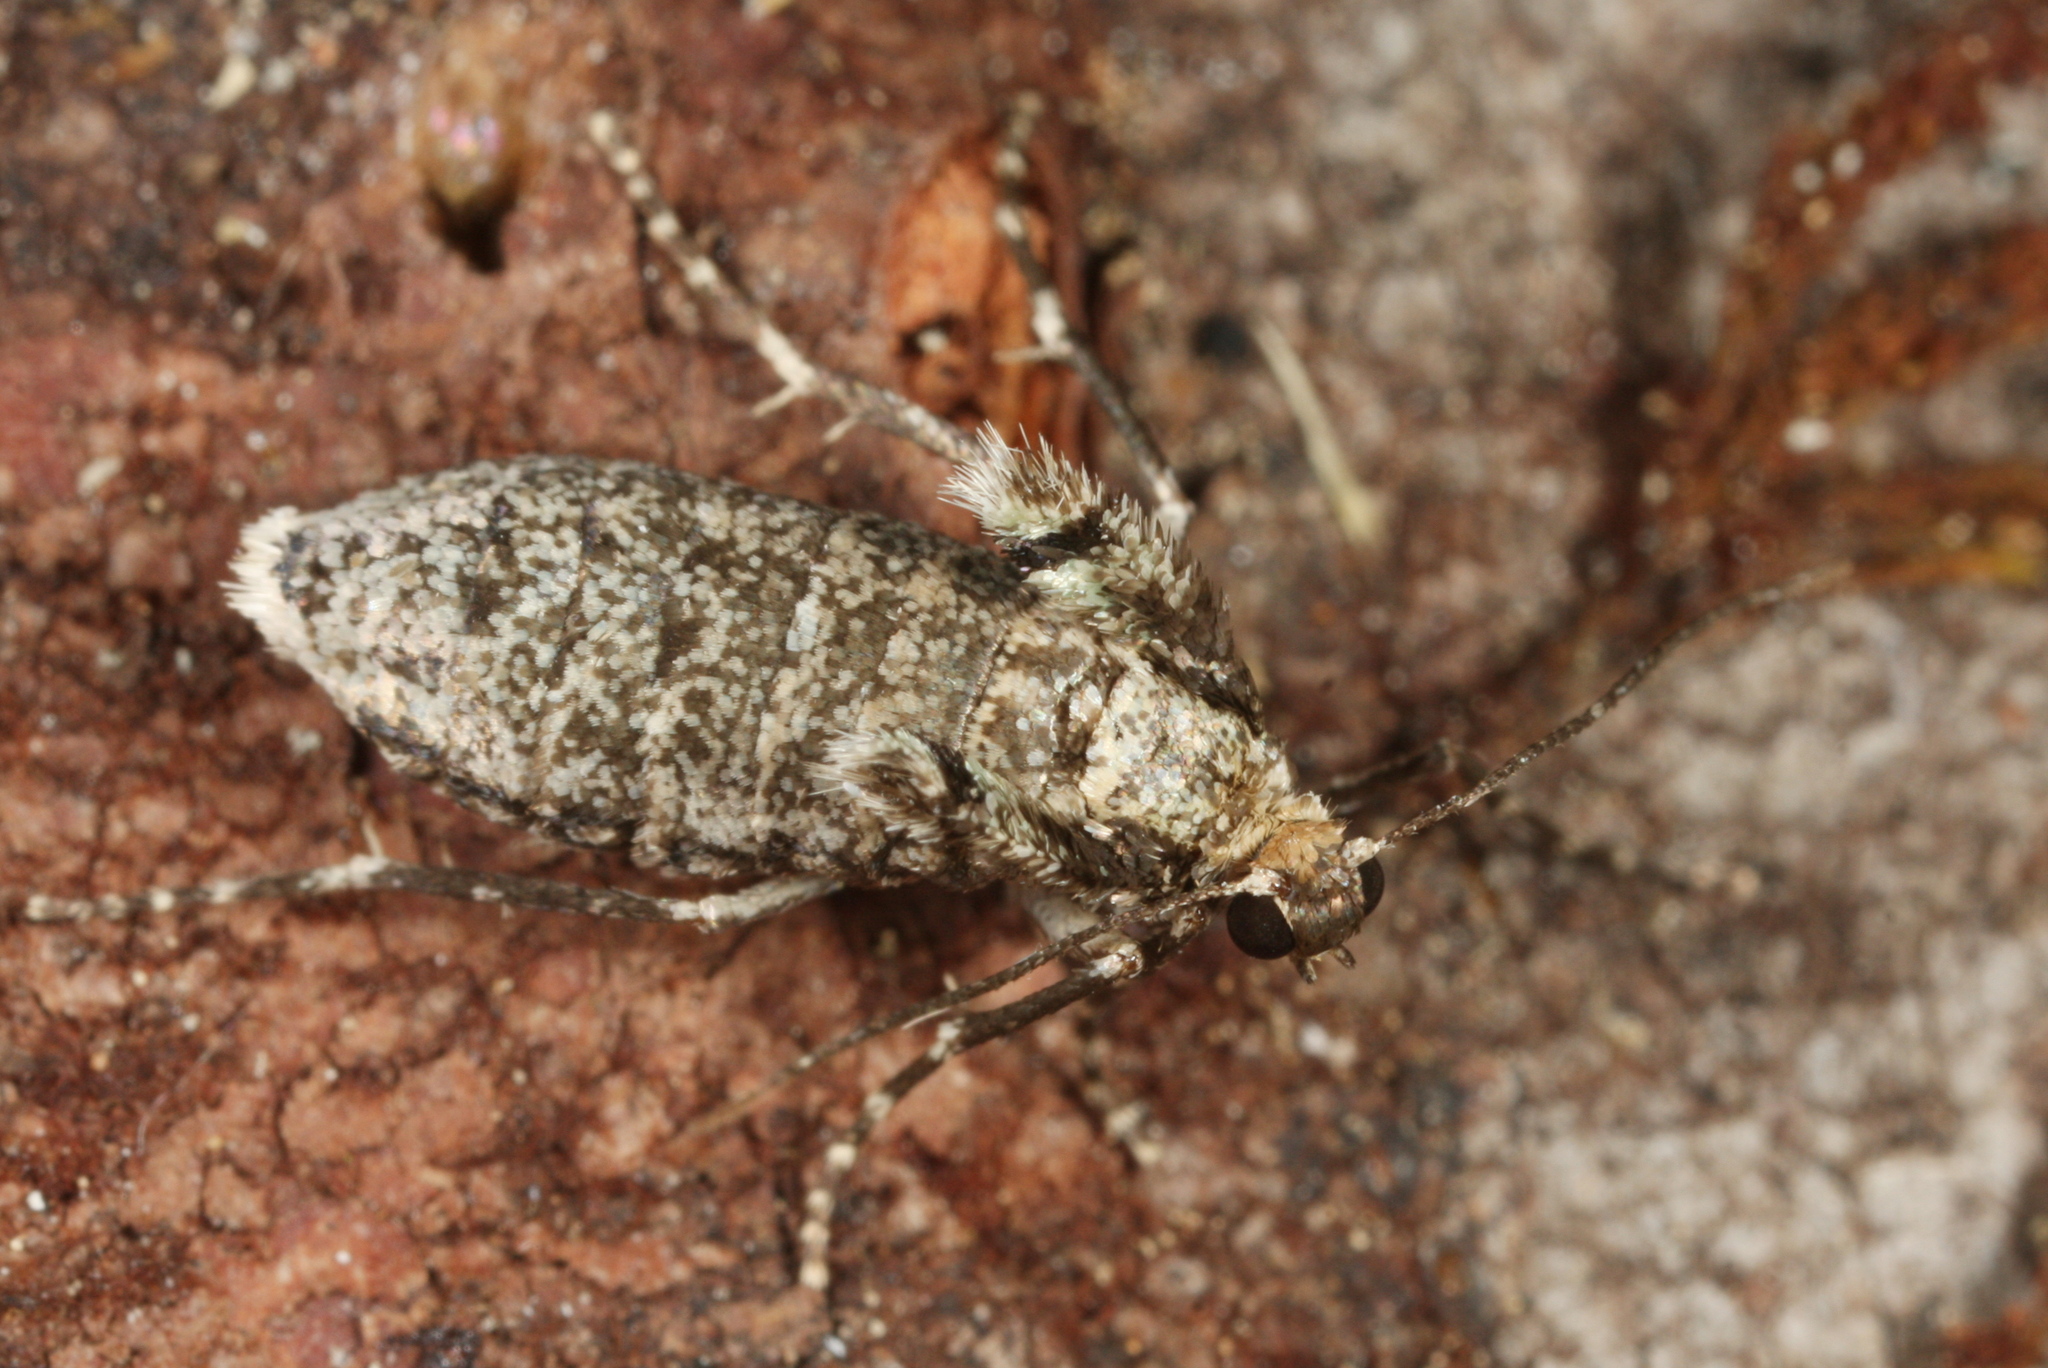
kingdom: Animalia
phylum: Arthropoda
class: Insecta
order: Lepidoptera
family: Geometridae
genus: Operophtera
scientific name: Operophtera brumata
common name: Winter moth
